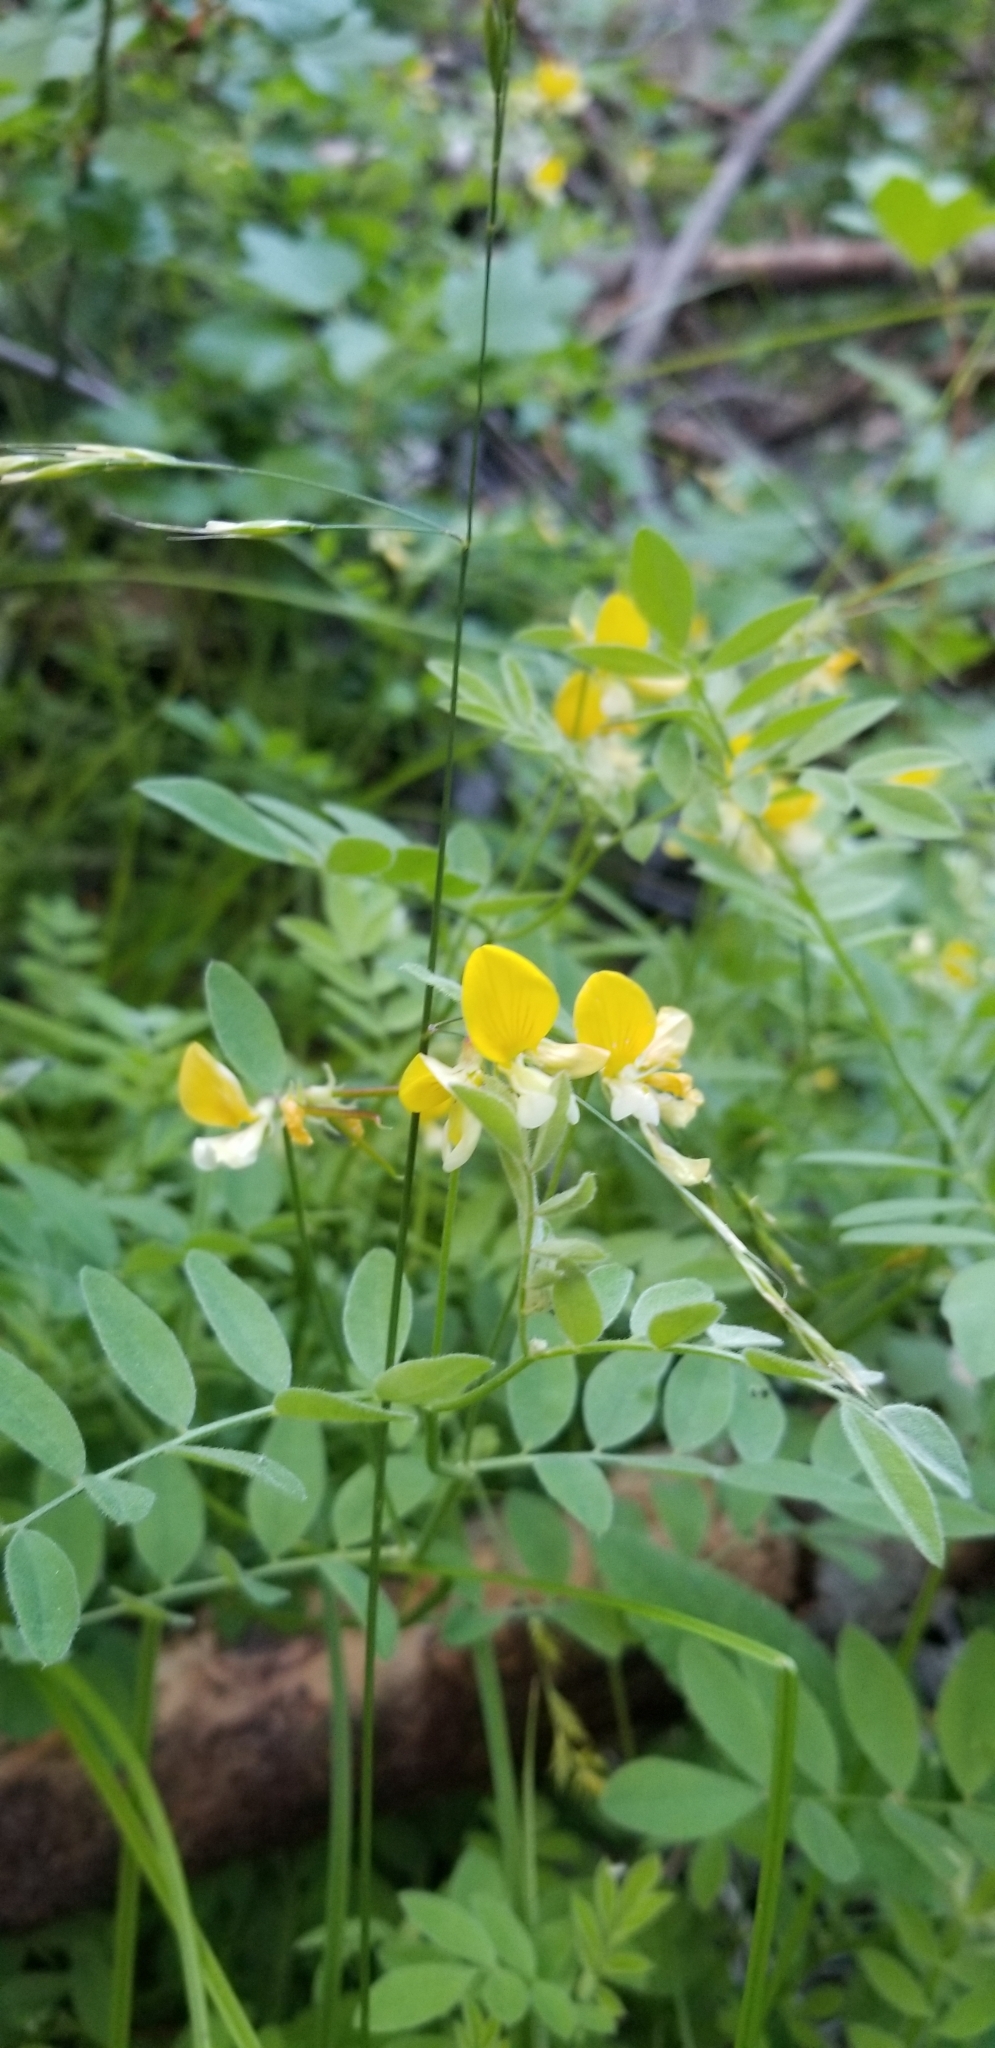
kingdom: Plantae
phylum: Tracheophyta
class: Magnoliopsida
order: Fabales
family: Fabaceae
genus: Hosackia
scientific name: Hosackia oblongifolia
